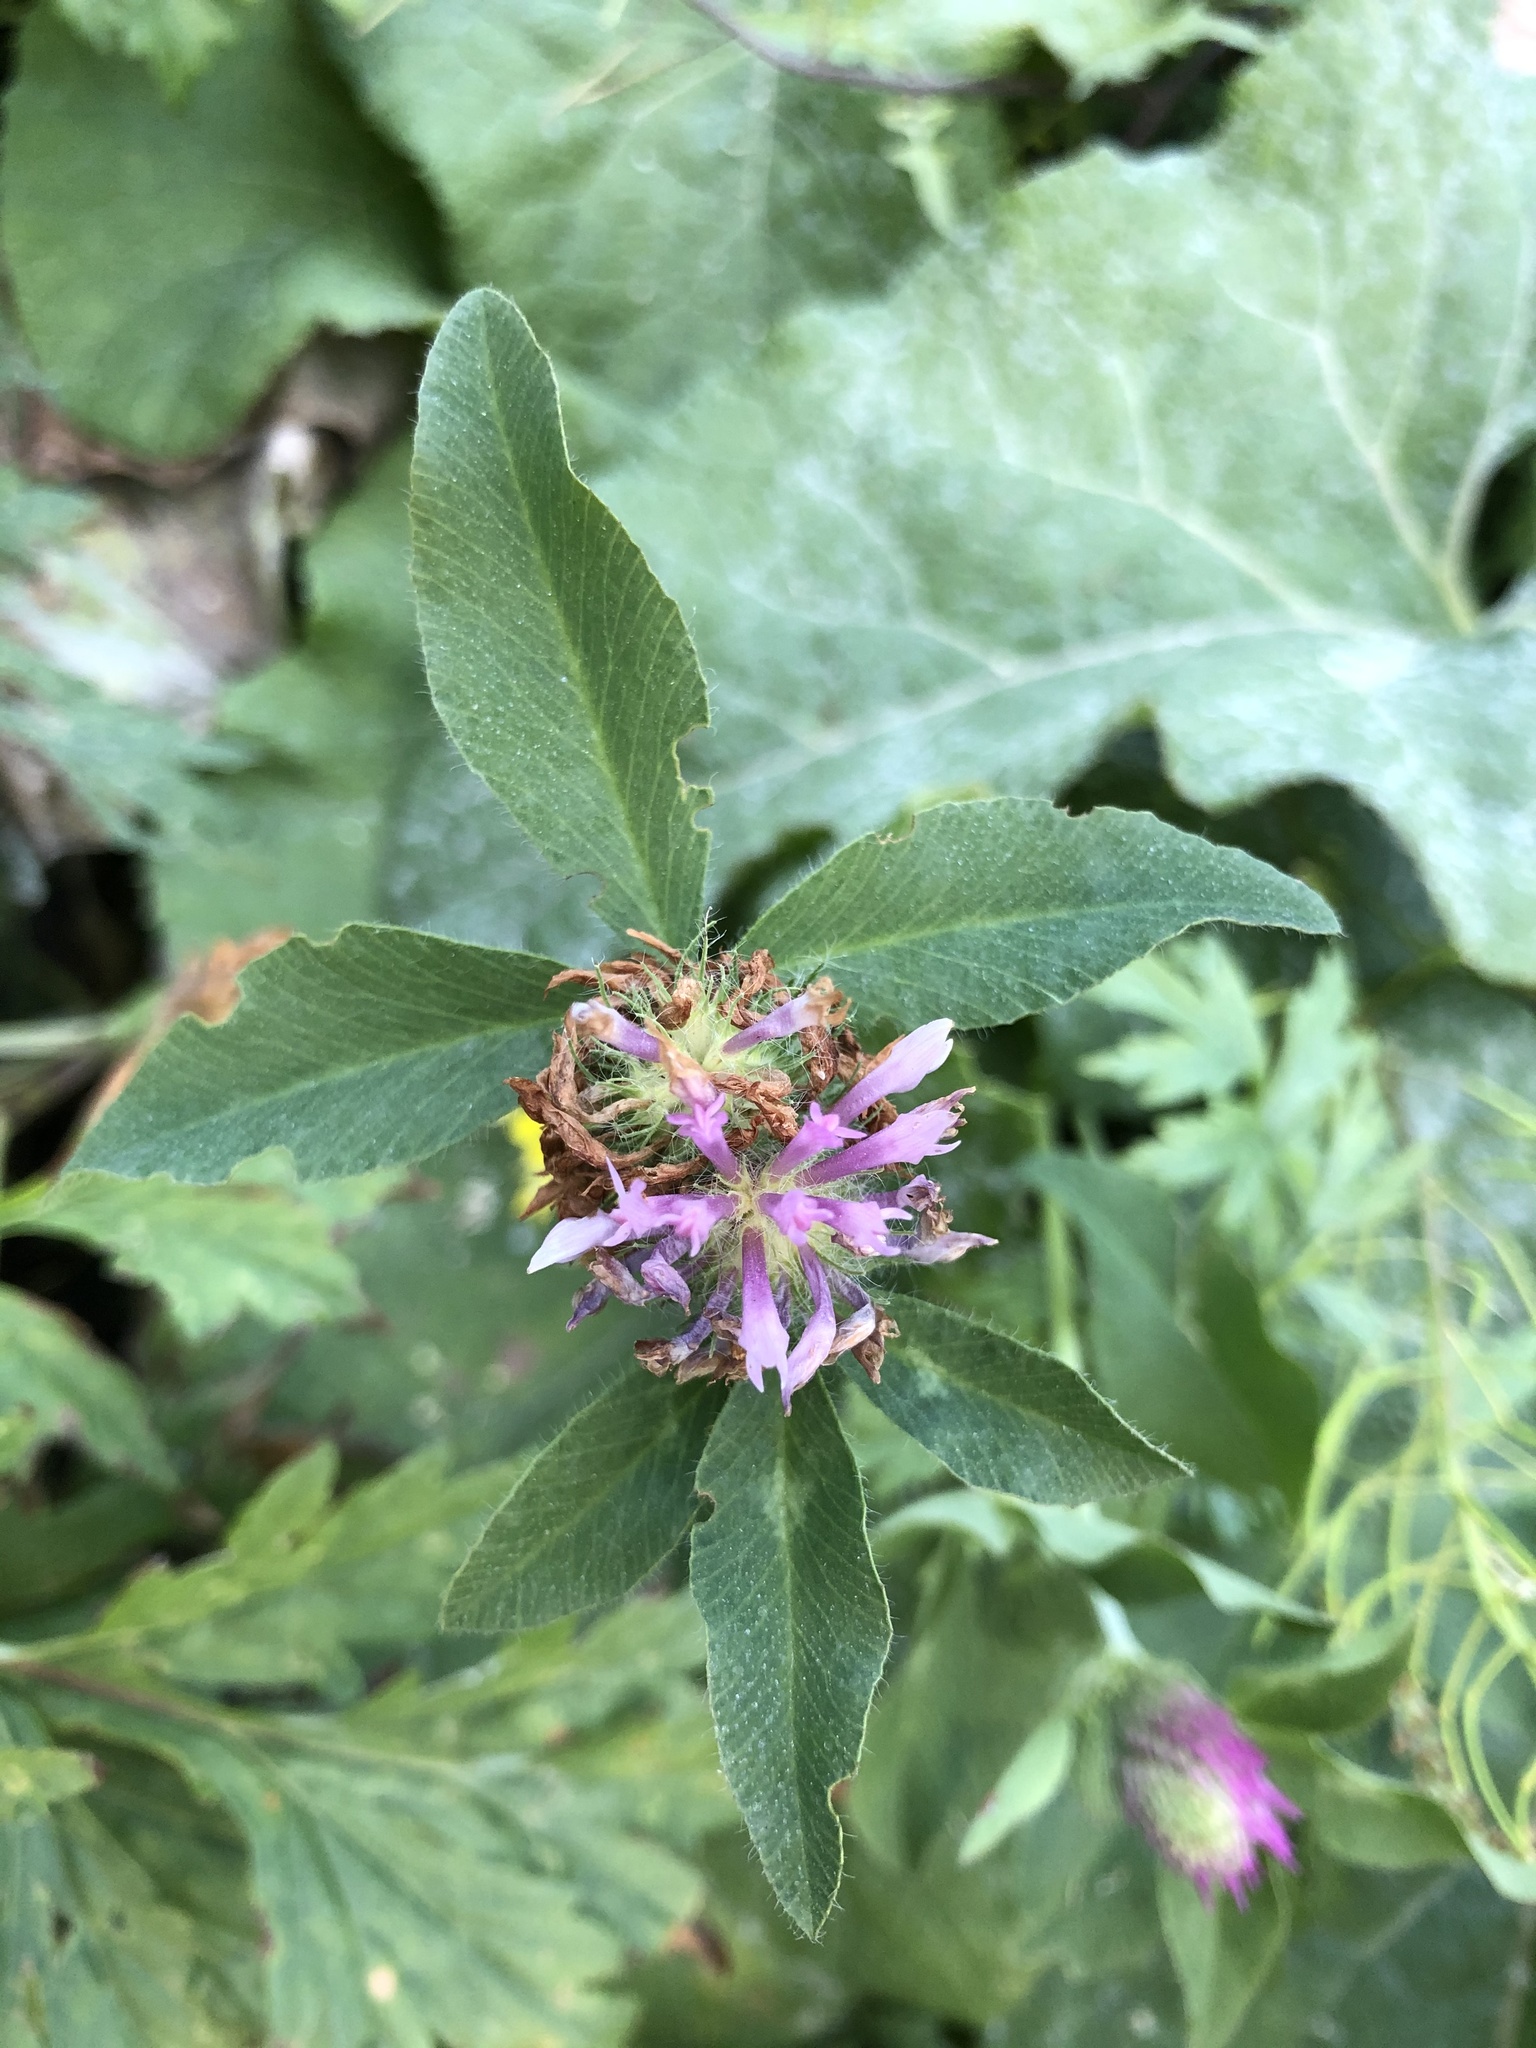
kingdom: Plantae
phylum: Tracheophyta
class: Magnoliopsida
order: Fabales
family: Fabaceae
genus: Trifolium
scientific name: Trifolium pratense
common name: Red clover
